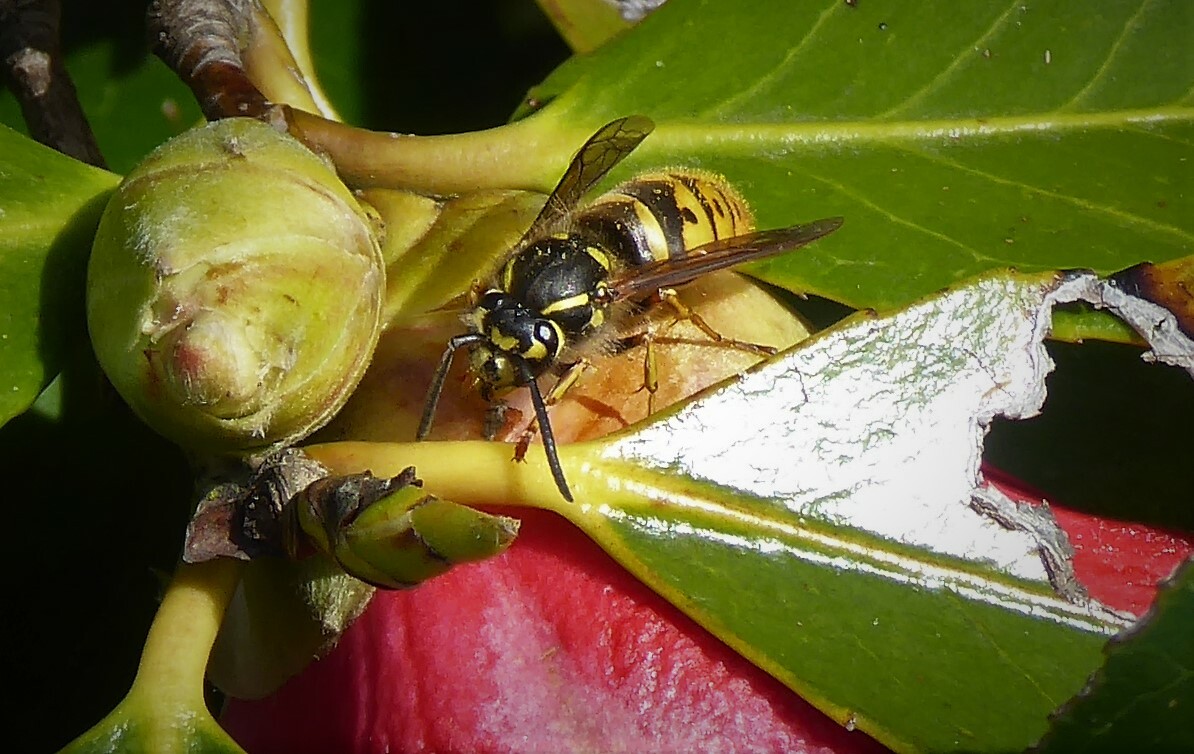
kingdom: Animalia
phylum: Arthropoda
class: Insecta
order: Hymenoptera
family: Vespidae
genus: Vespula
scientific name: Vespula vulgaris
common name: Common wasp
